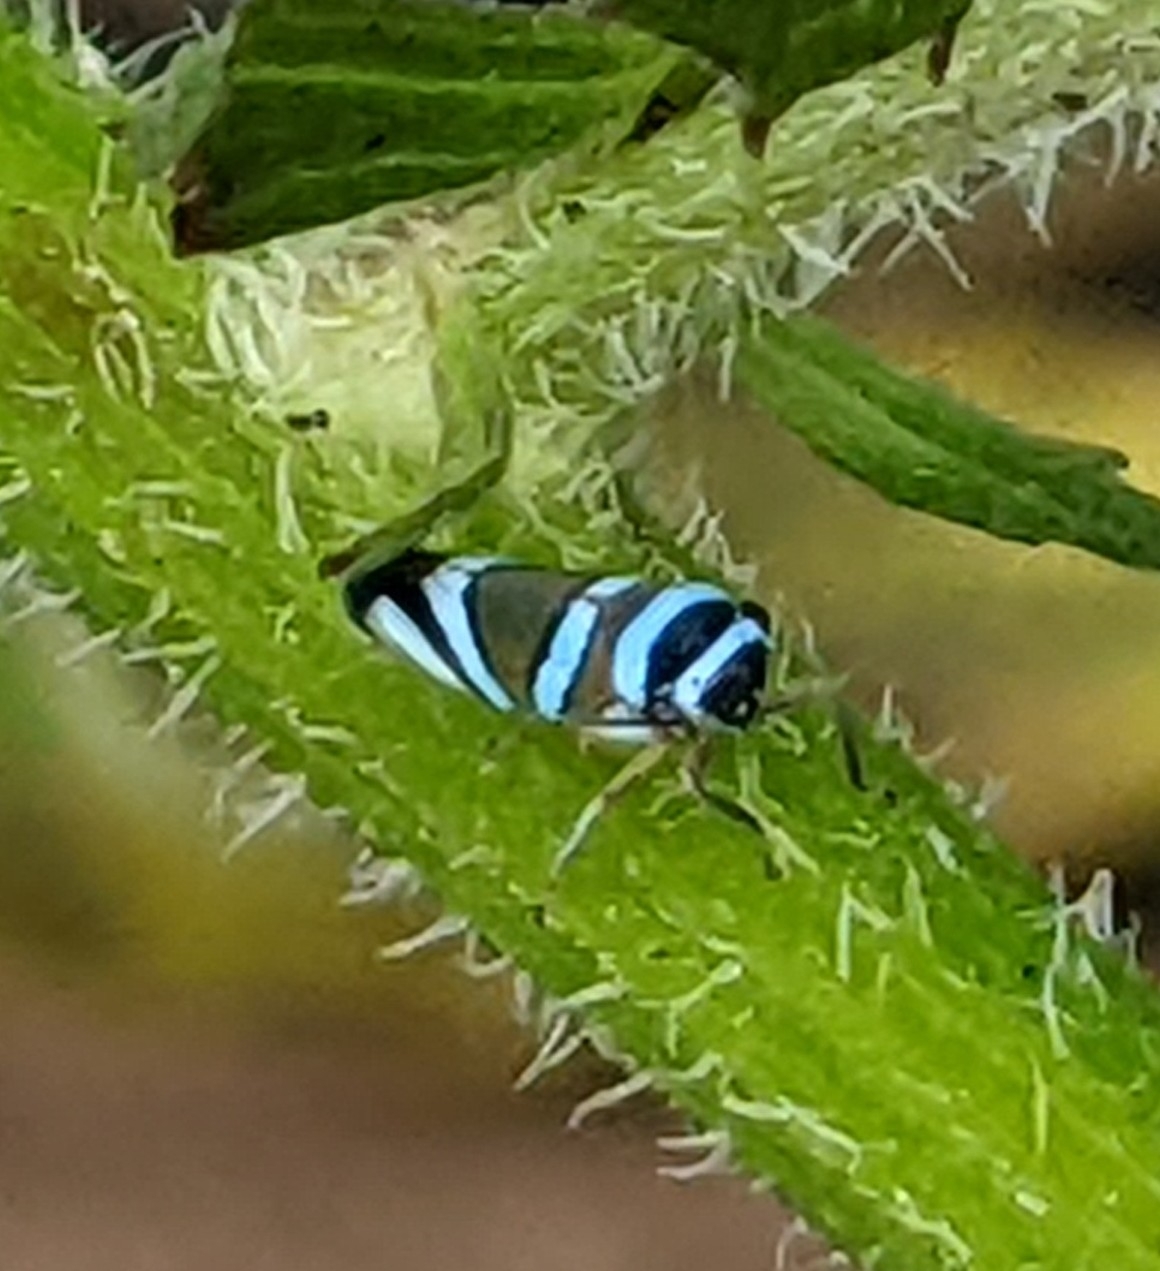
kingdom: Animalia
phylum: Arthropoda
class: Insecta
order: Hemiptera
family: Cicadellidae
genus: Macugonalia
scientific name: Macugonalia moesta
